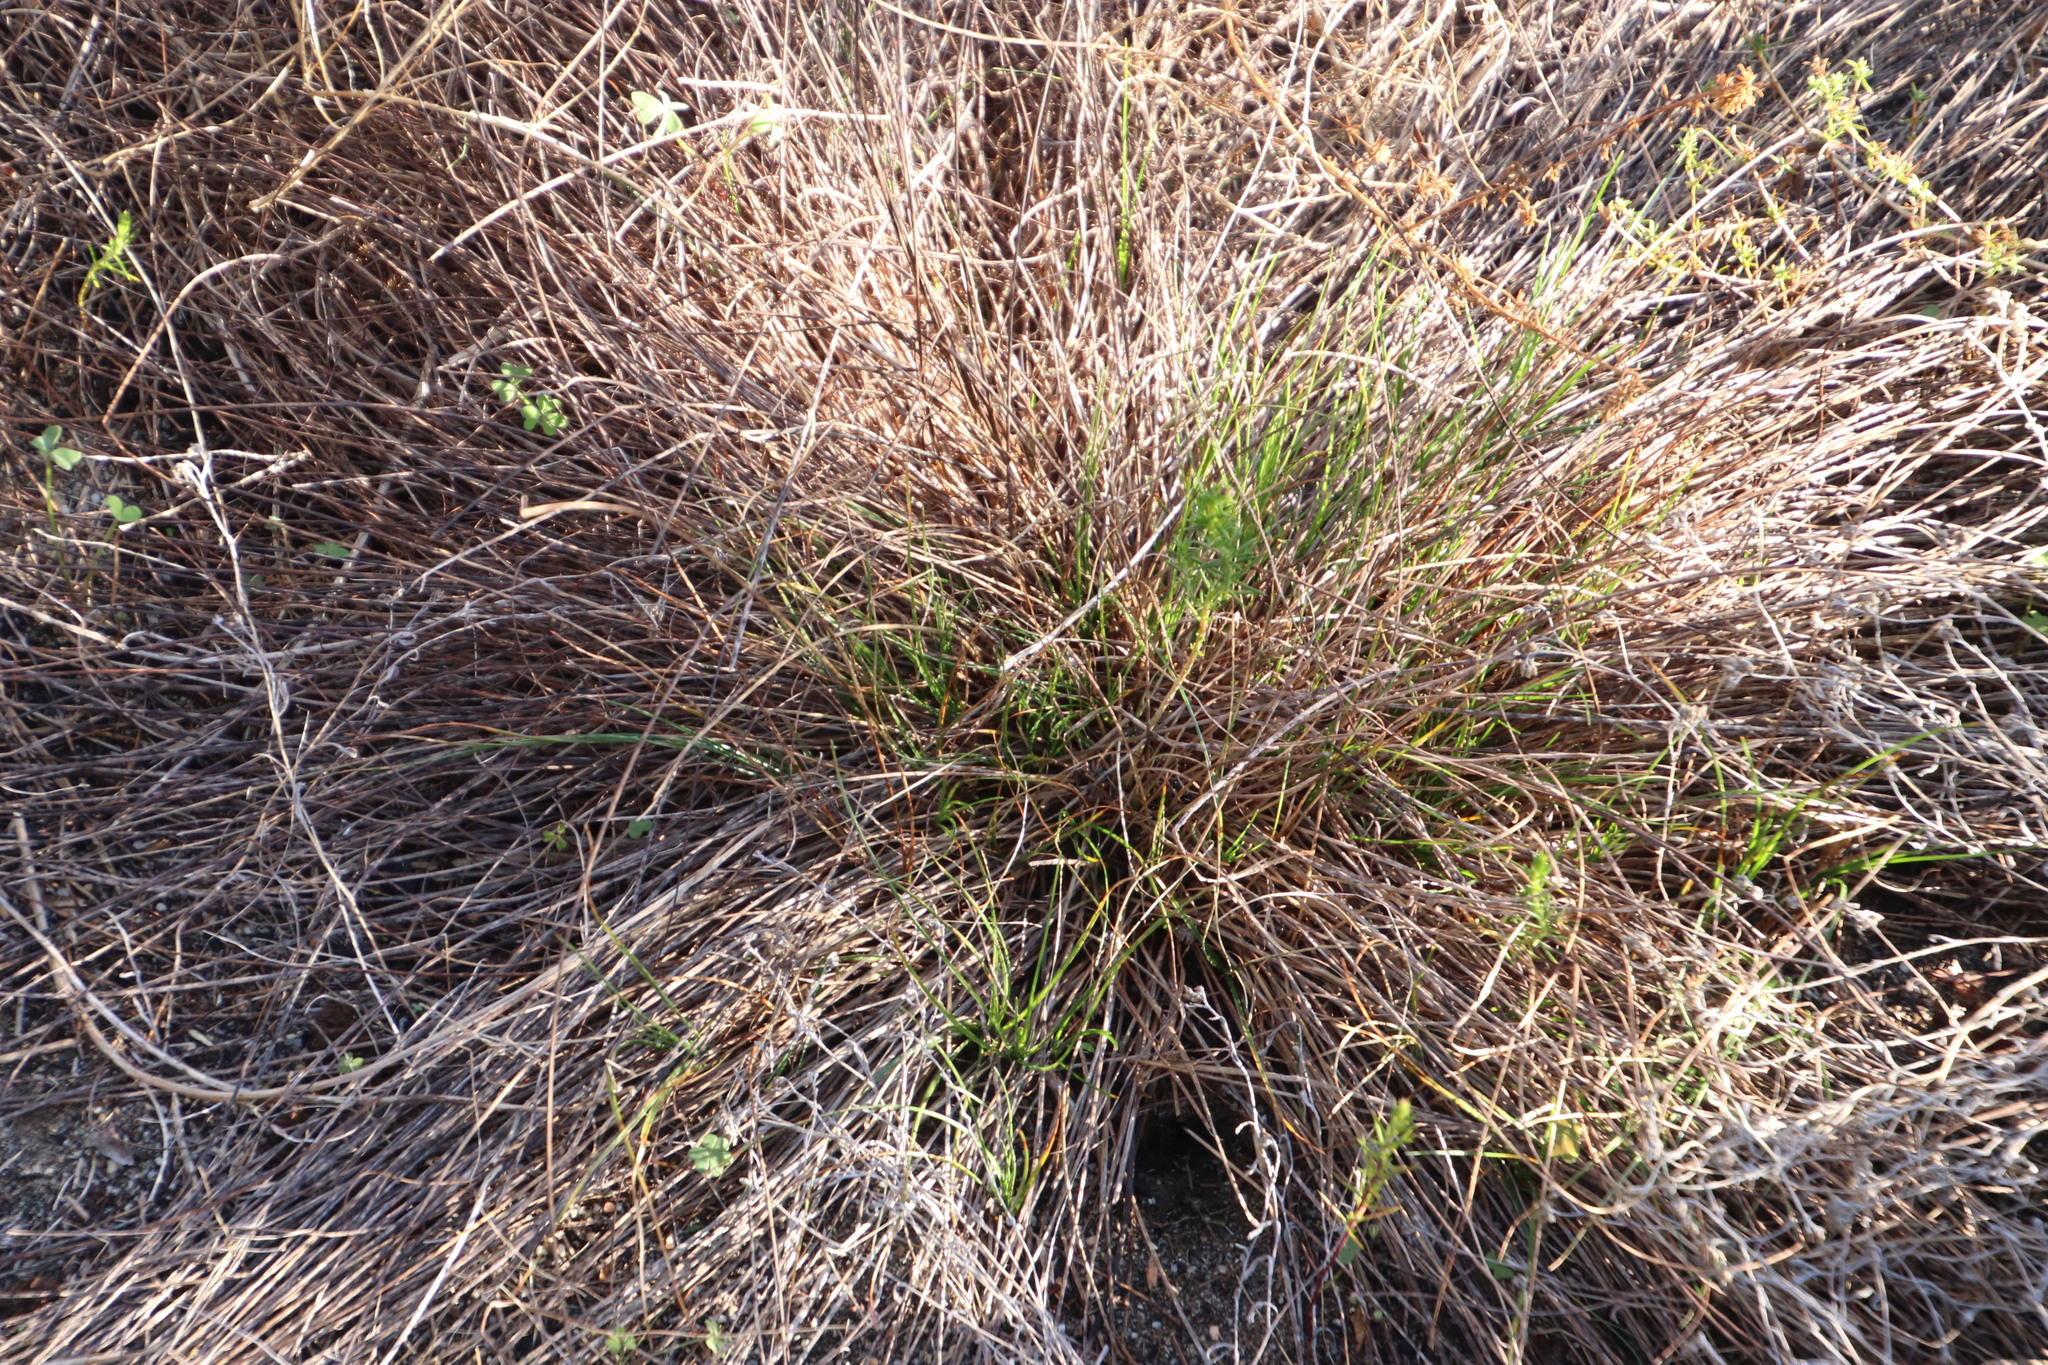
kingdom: Plantae
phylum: Tracheophyta
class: Liliopsida
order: Poales
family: Cyperaceae
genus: Ficinia
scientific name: Ficinia indica
